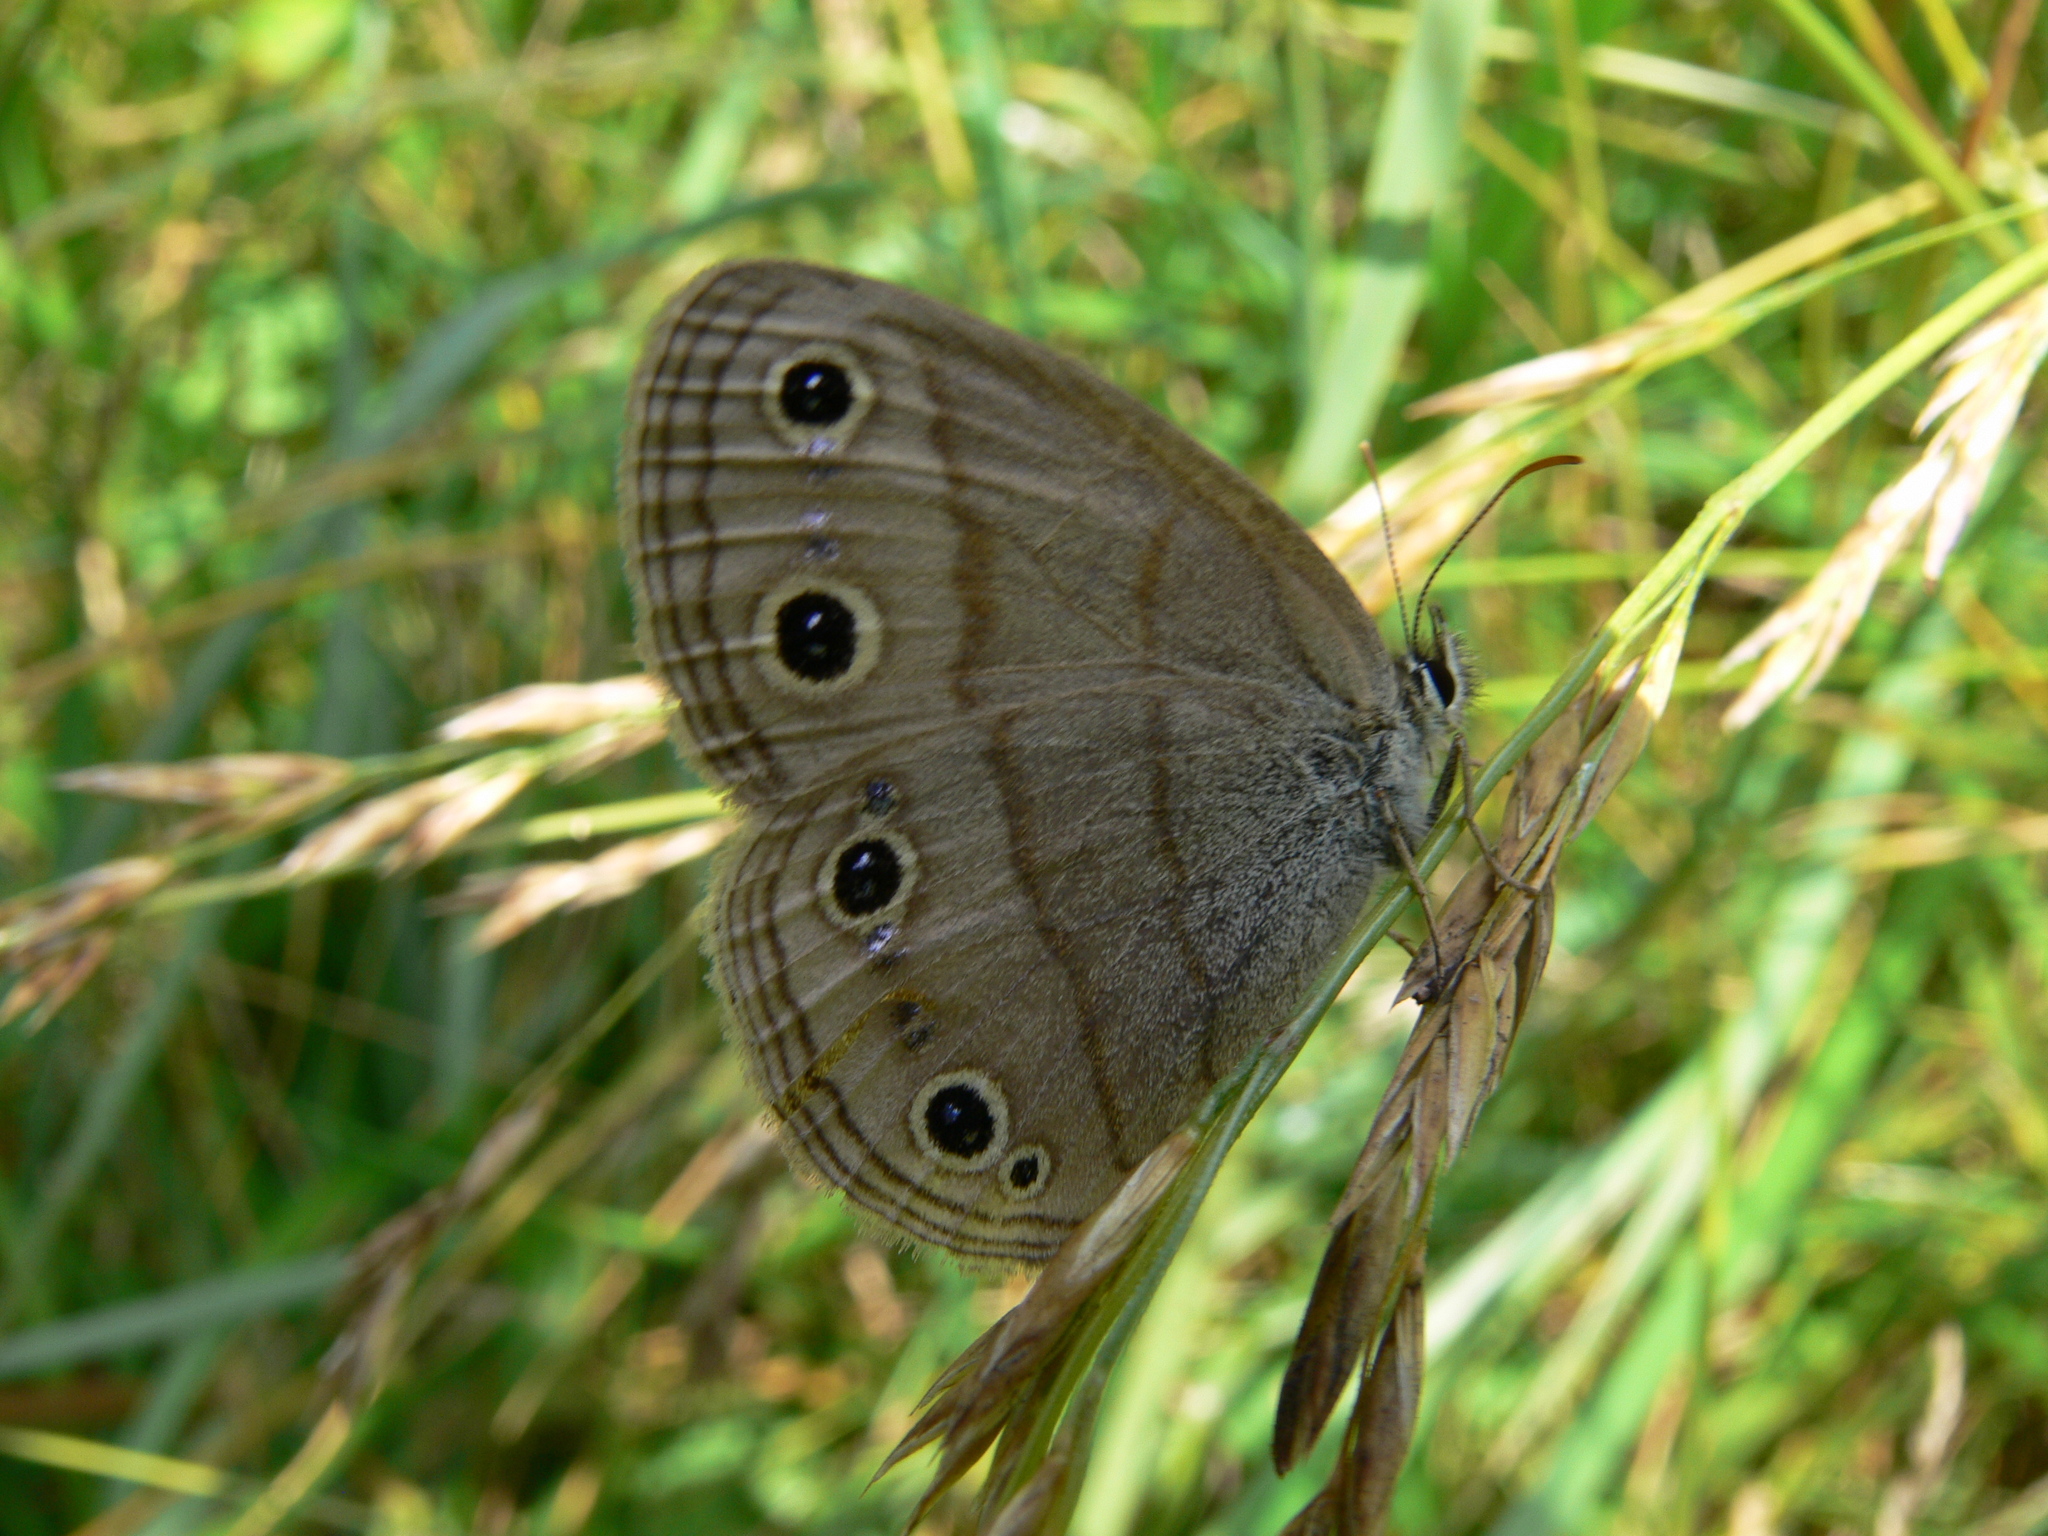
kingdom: Animalia
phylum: Arthropoda
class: Insecta
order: Lepidoptera
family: Nymphalidae
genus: Euptychia
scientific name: Euptychia cymela
